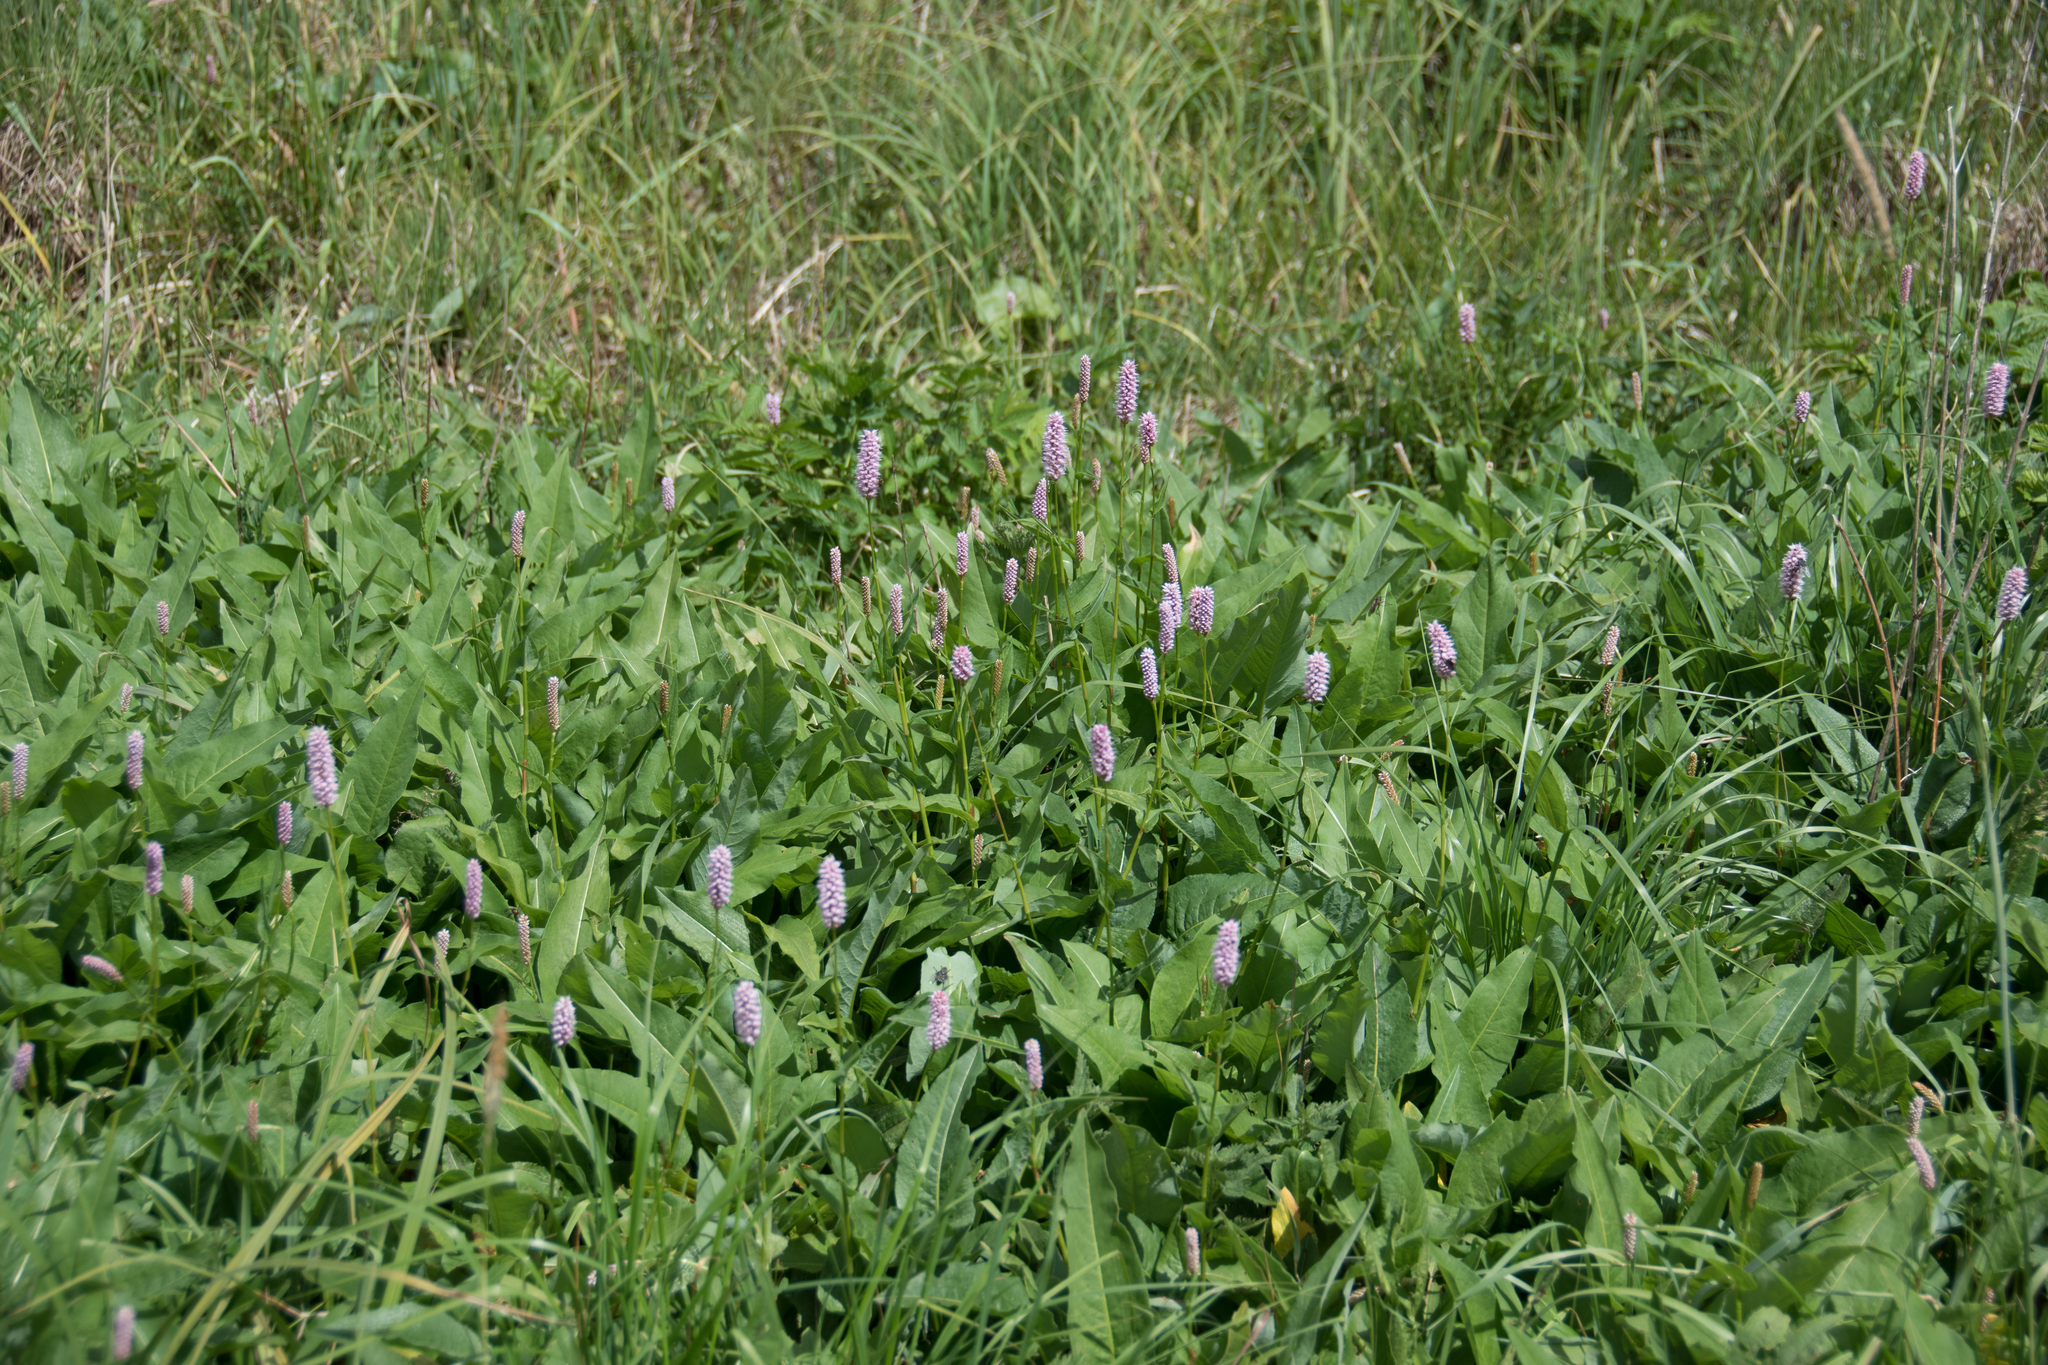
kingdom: Plantae
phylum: Tracheophyta
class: Magnoliopsida
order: Caryophyllales
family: Polygonaceae
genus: Bistorta
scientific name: Bistorta officinalis
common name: Common bistort
